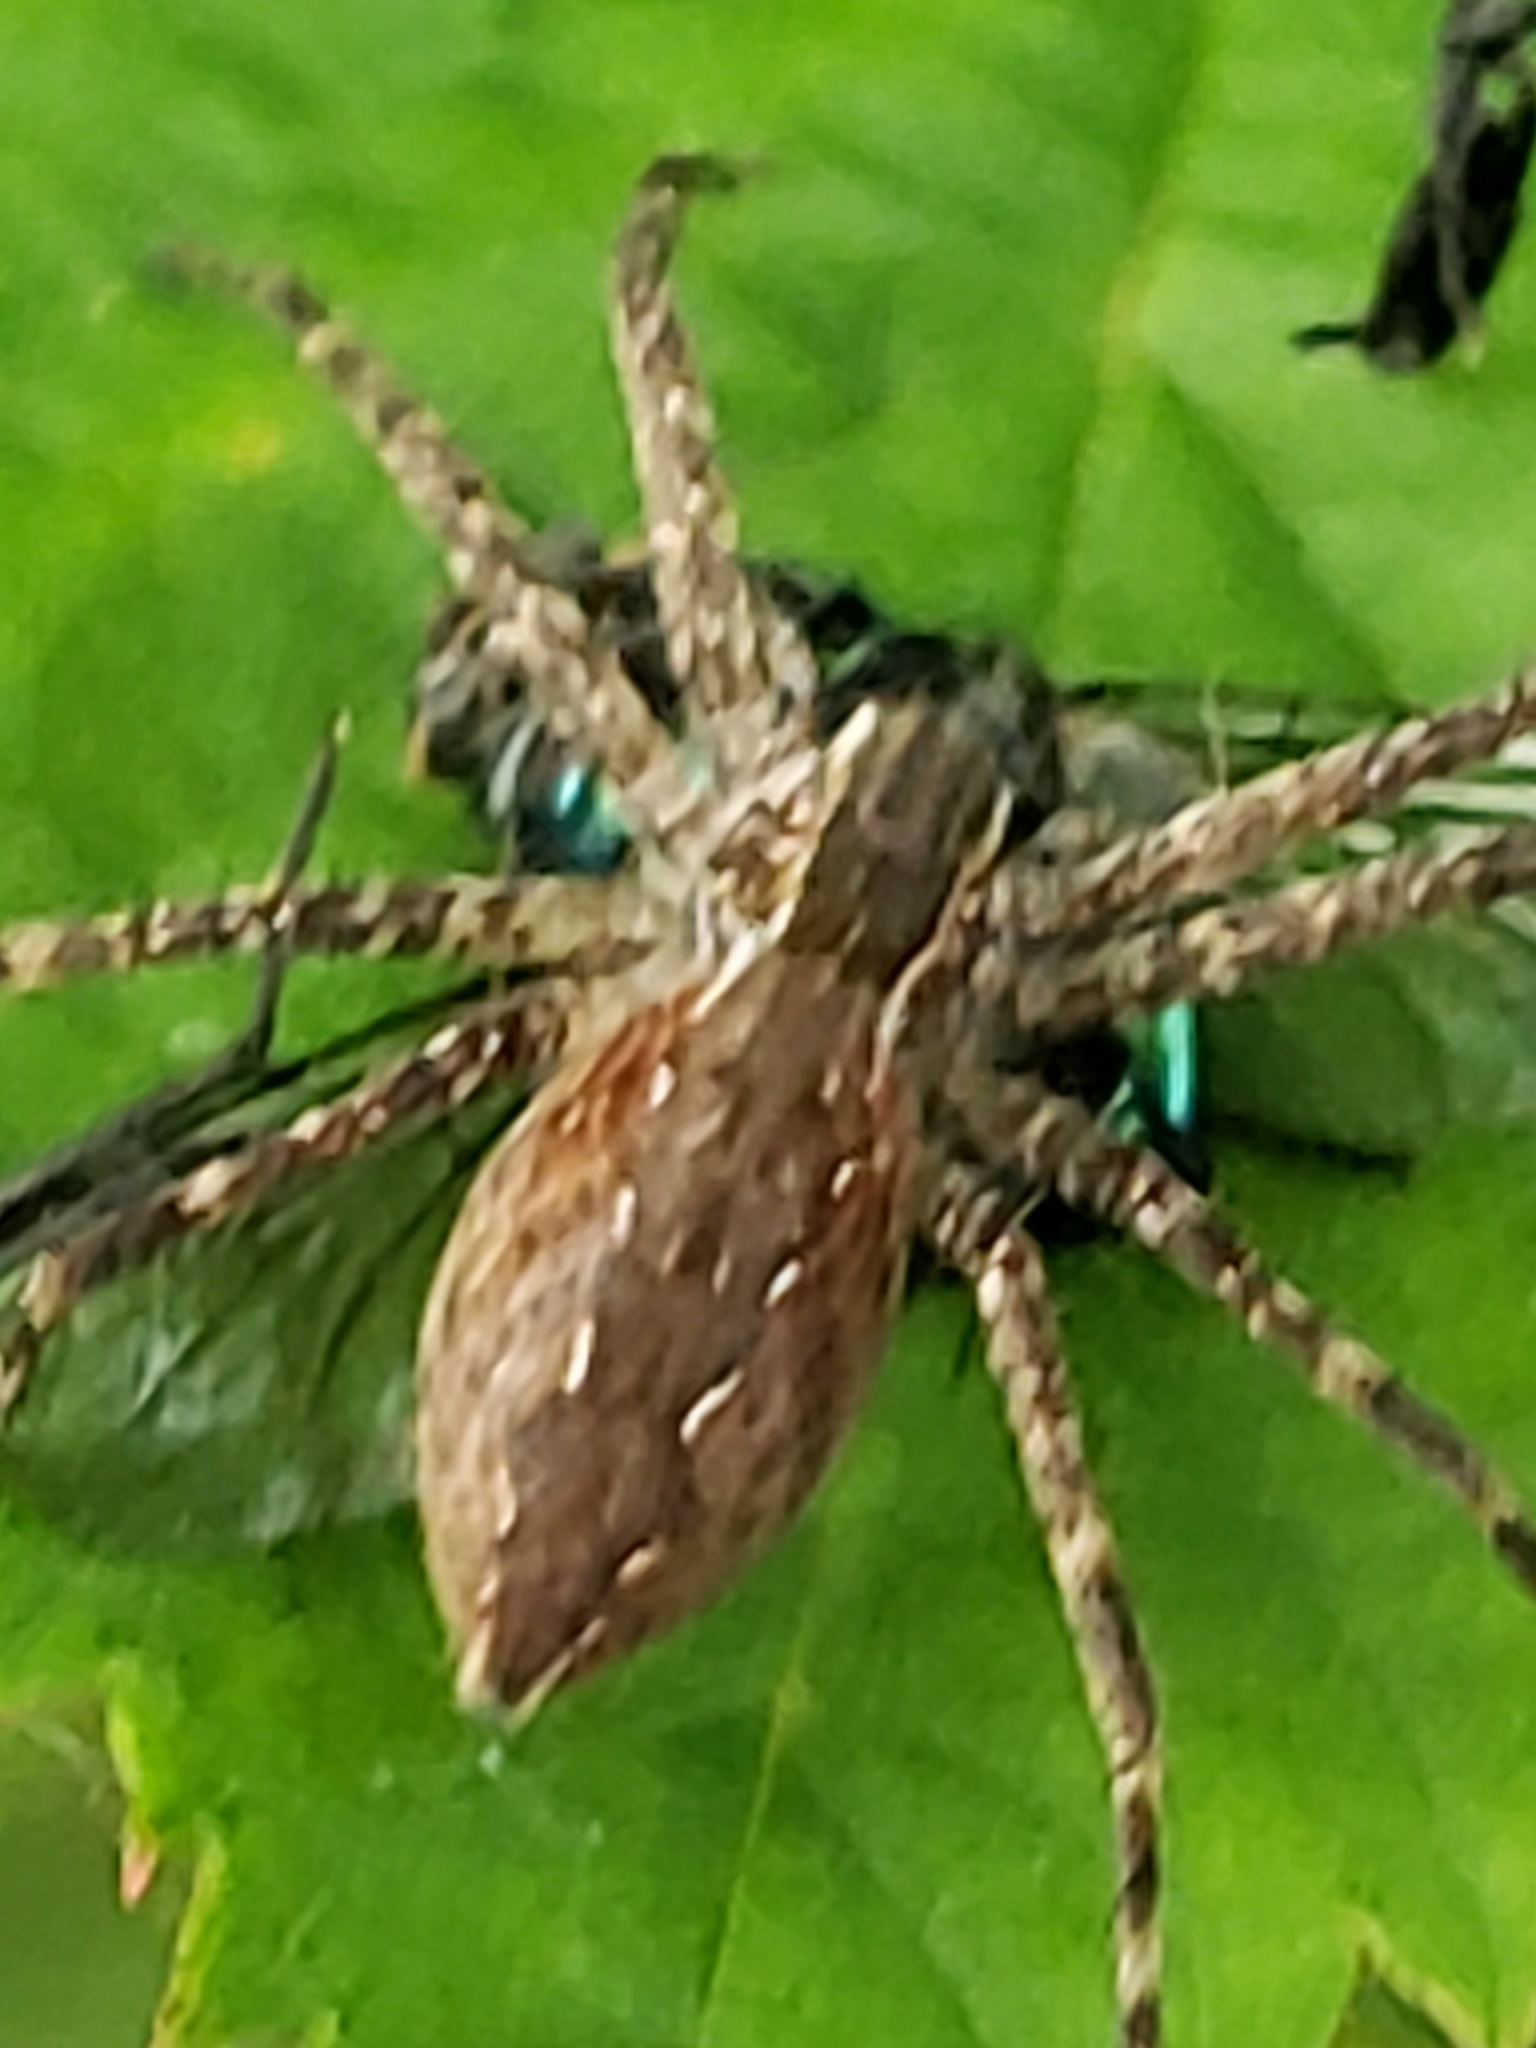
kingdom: Animalia
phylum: Arthropoda
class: Arachnida
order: Araneae
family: Pisauridae
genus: Pisaurina
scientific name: Pisaurina mira
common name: American nursery web spider
